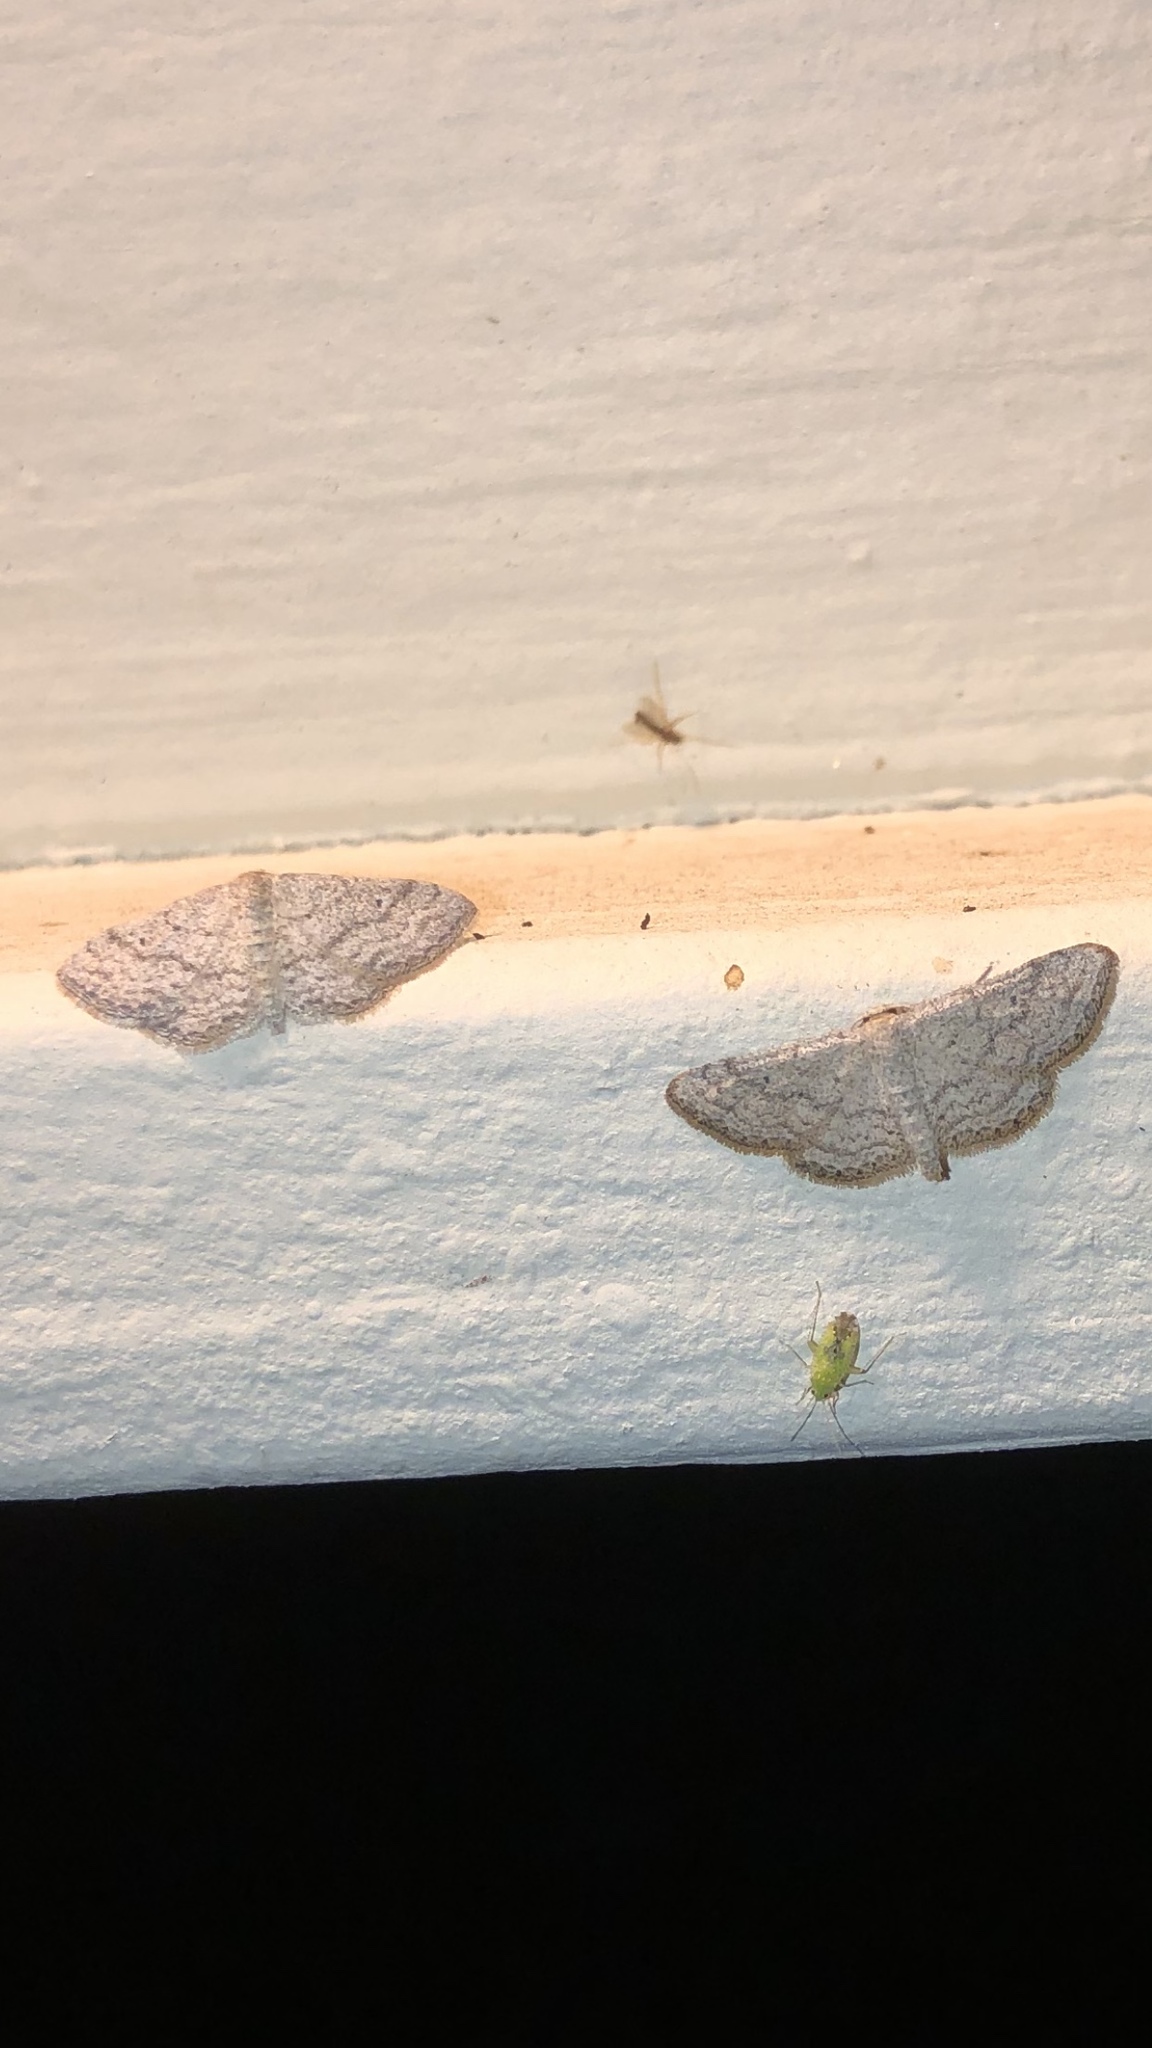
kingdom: Animalia
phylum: Arthropoda
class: Insecta
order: Lepidoptera
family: Geometridae
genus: Lobocleta
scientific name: Lobocleta ossularia
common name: Drab brown wave
